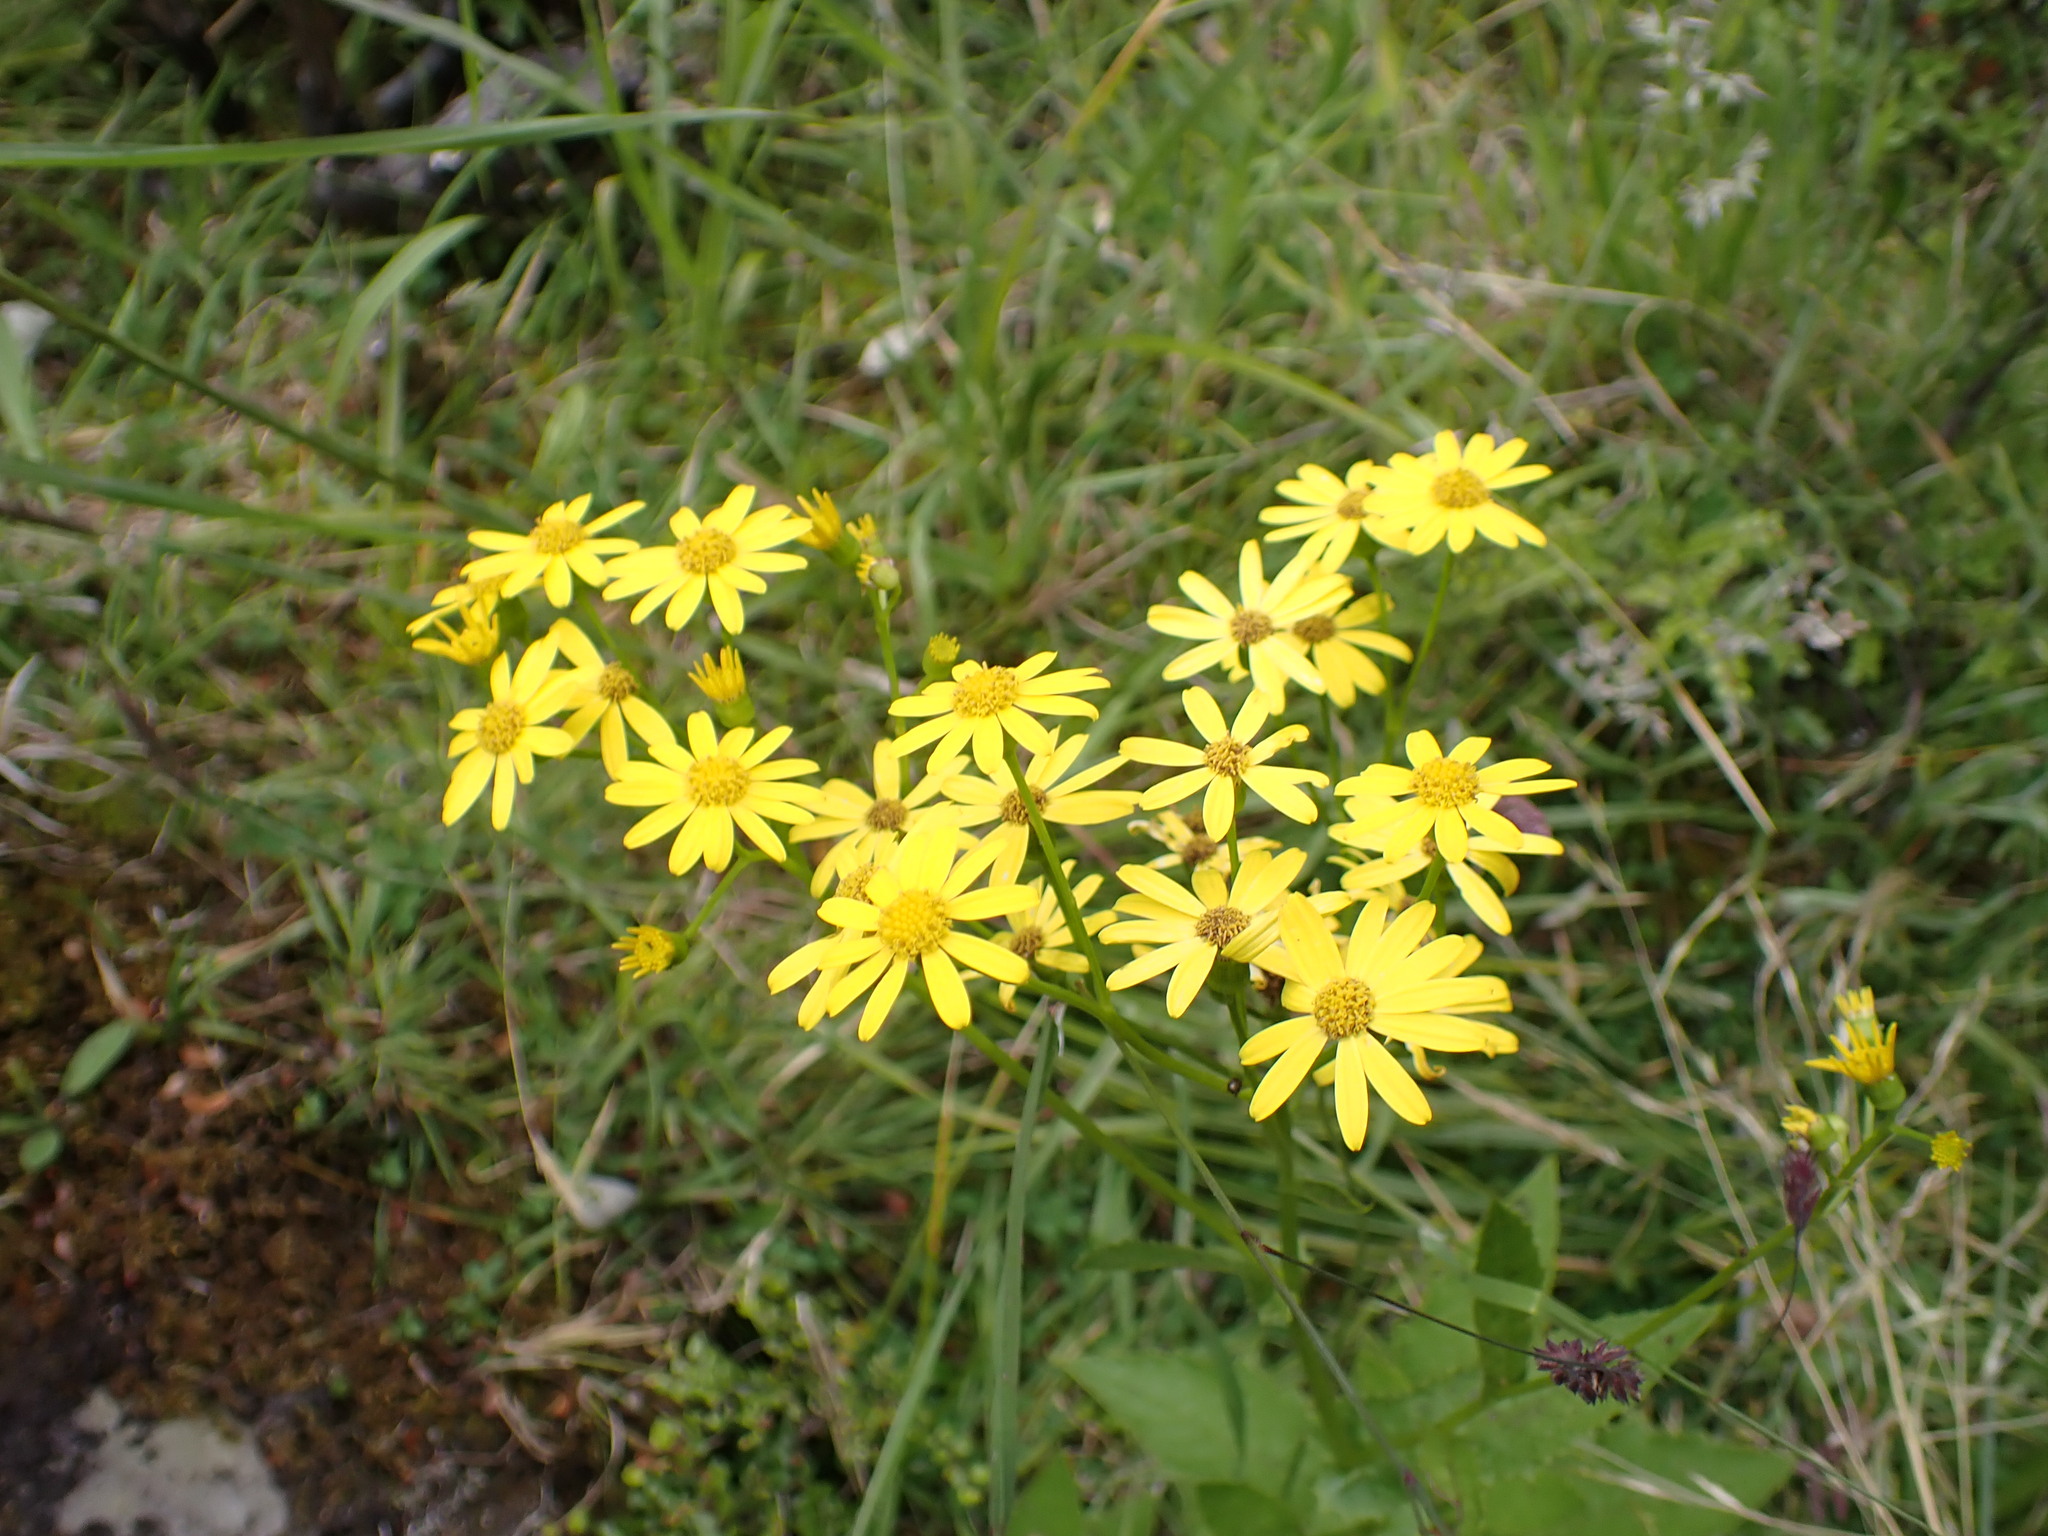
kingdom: Plantae
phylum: Tracheophyta
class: Magnoliopsida
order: Asterales
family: Asteraceae
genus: Senecio
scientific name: Senecio rufiglandulosus
